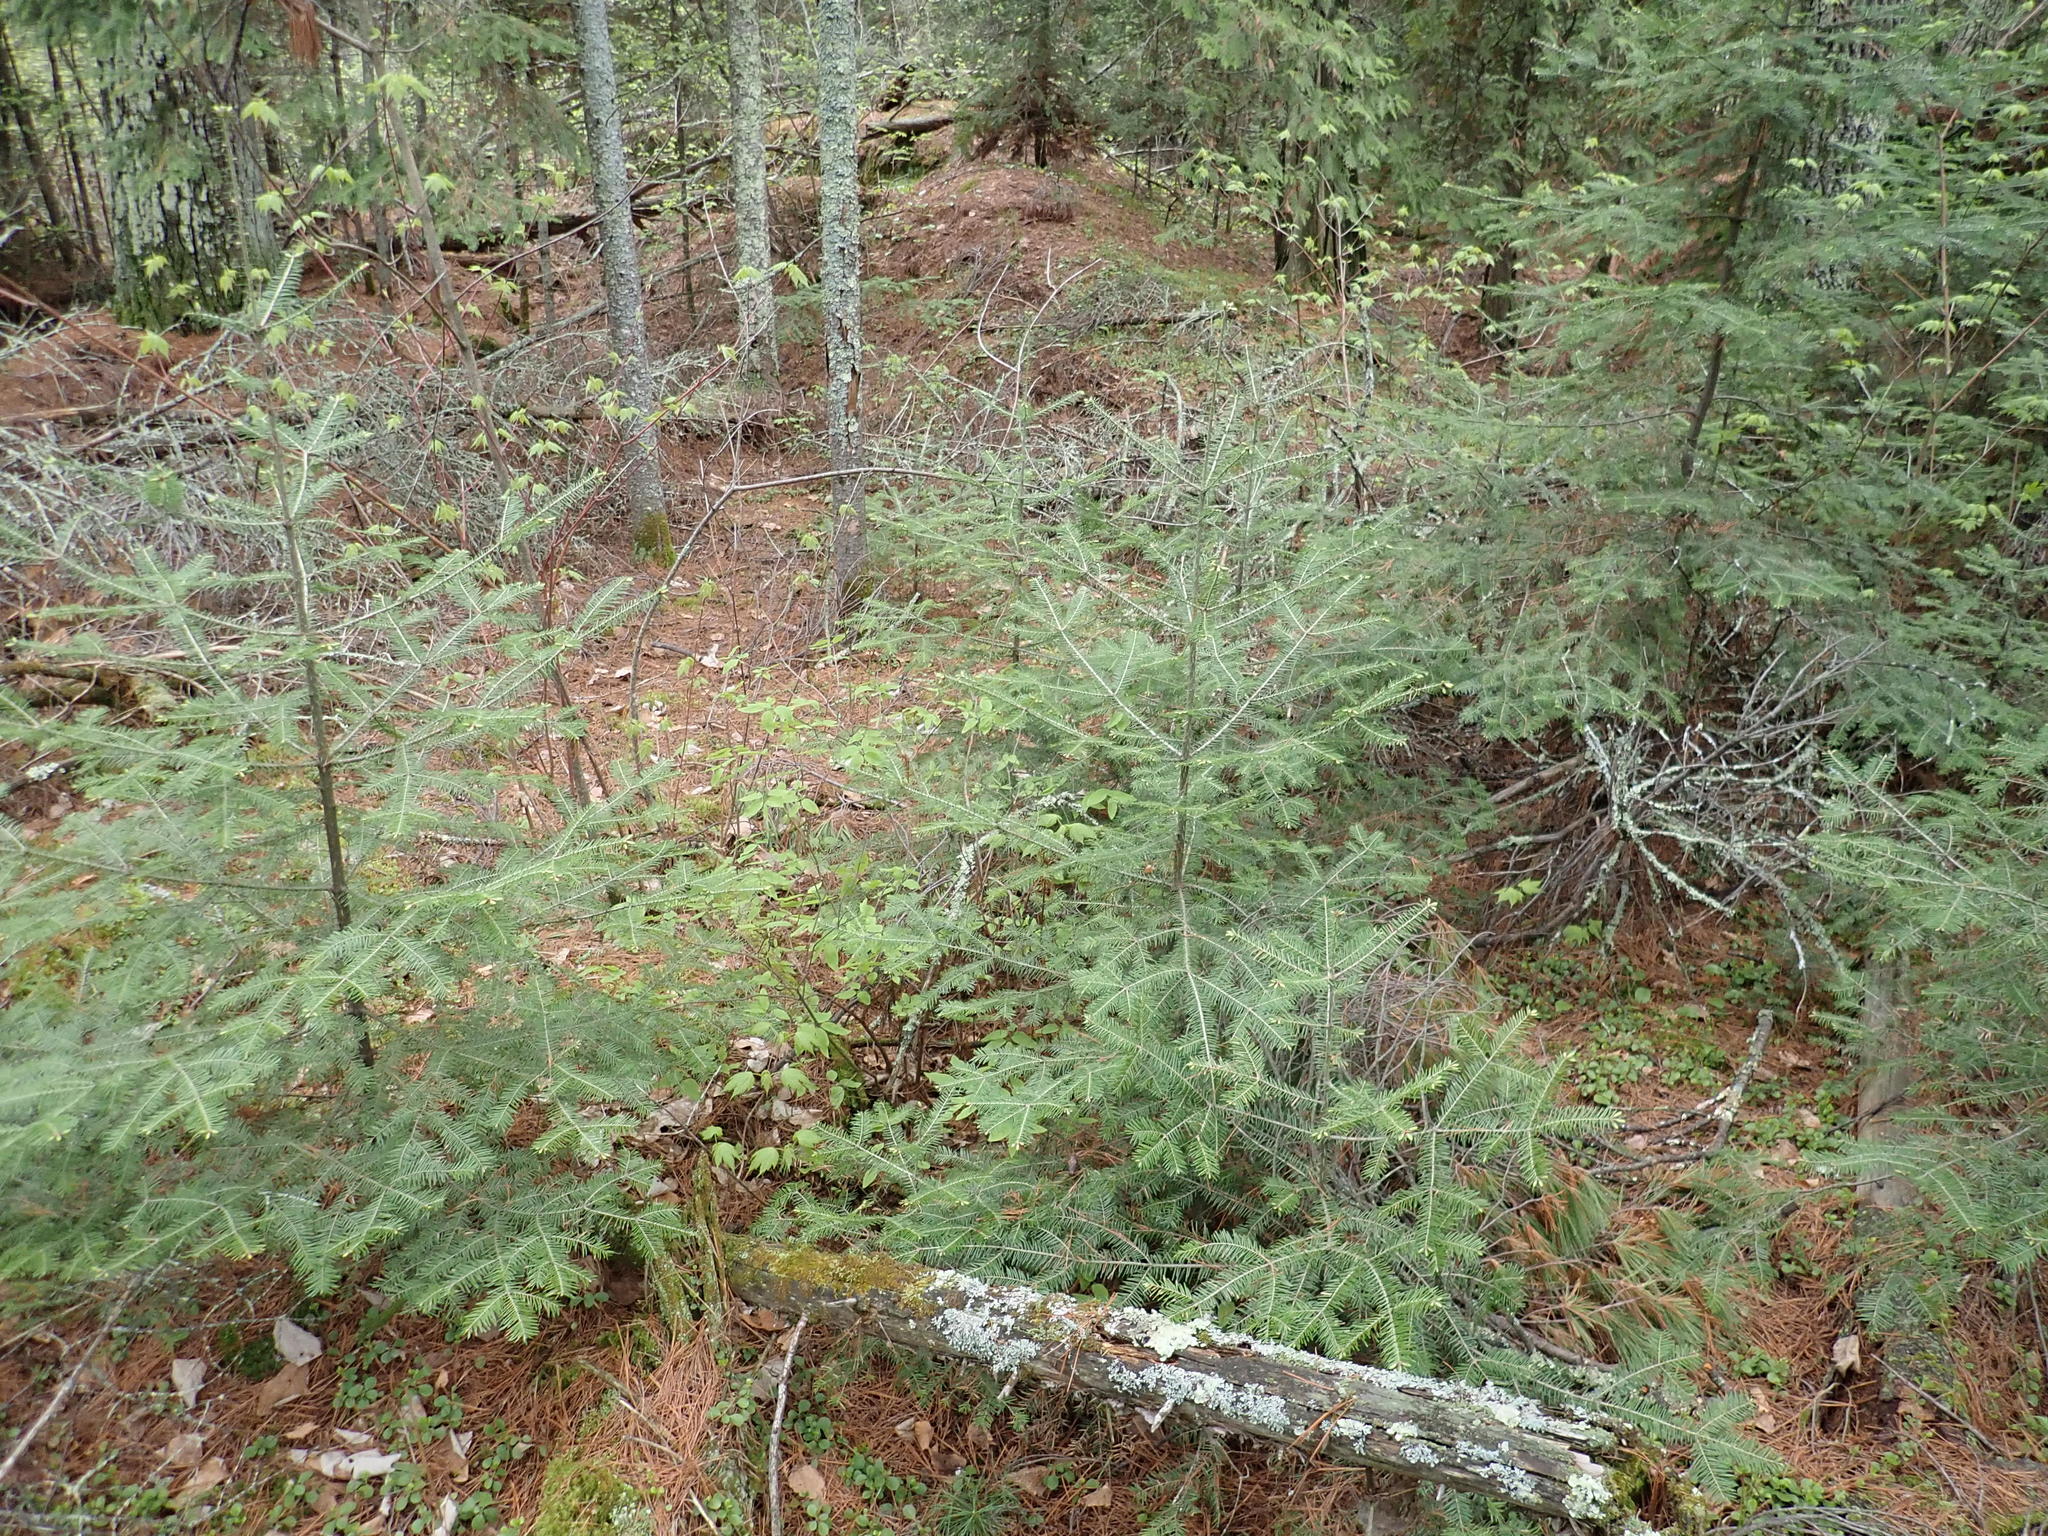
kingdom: Plantae
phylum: Tracheophyta
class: Pinopsida
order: Pinales
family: Pinaceae
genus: Abies
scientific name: Abies balsamea
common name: Balsam fir
